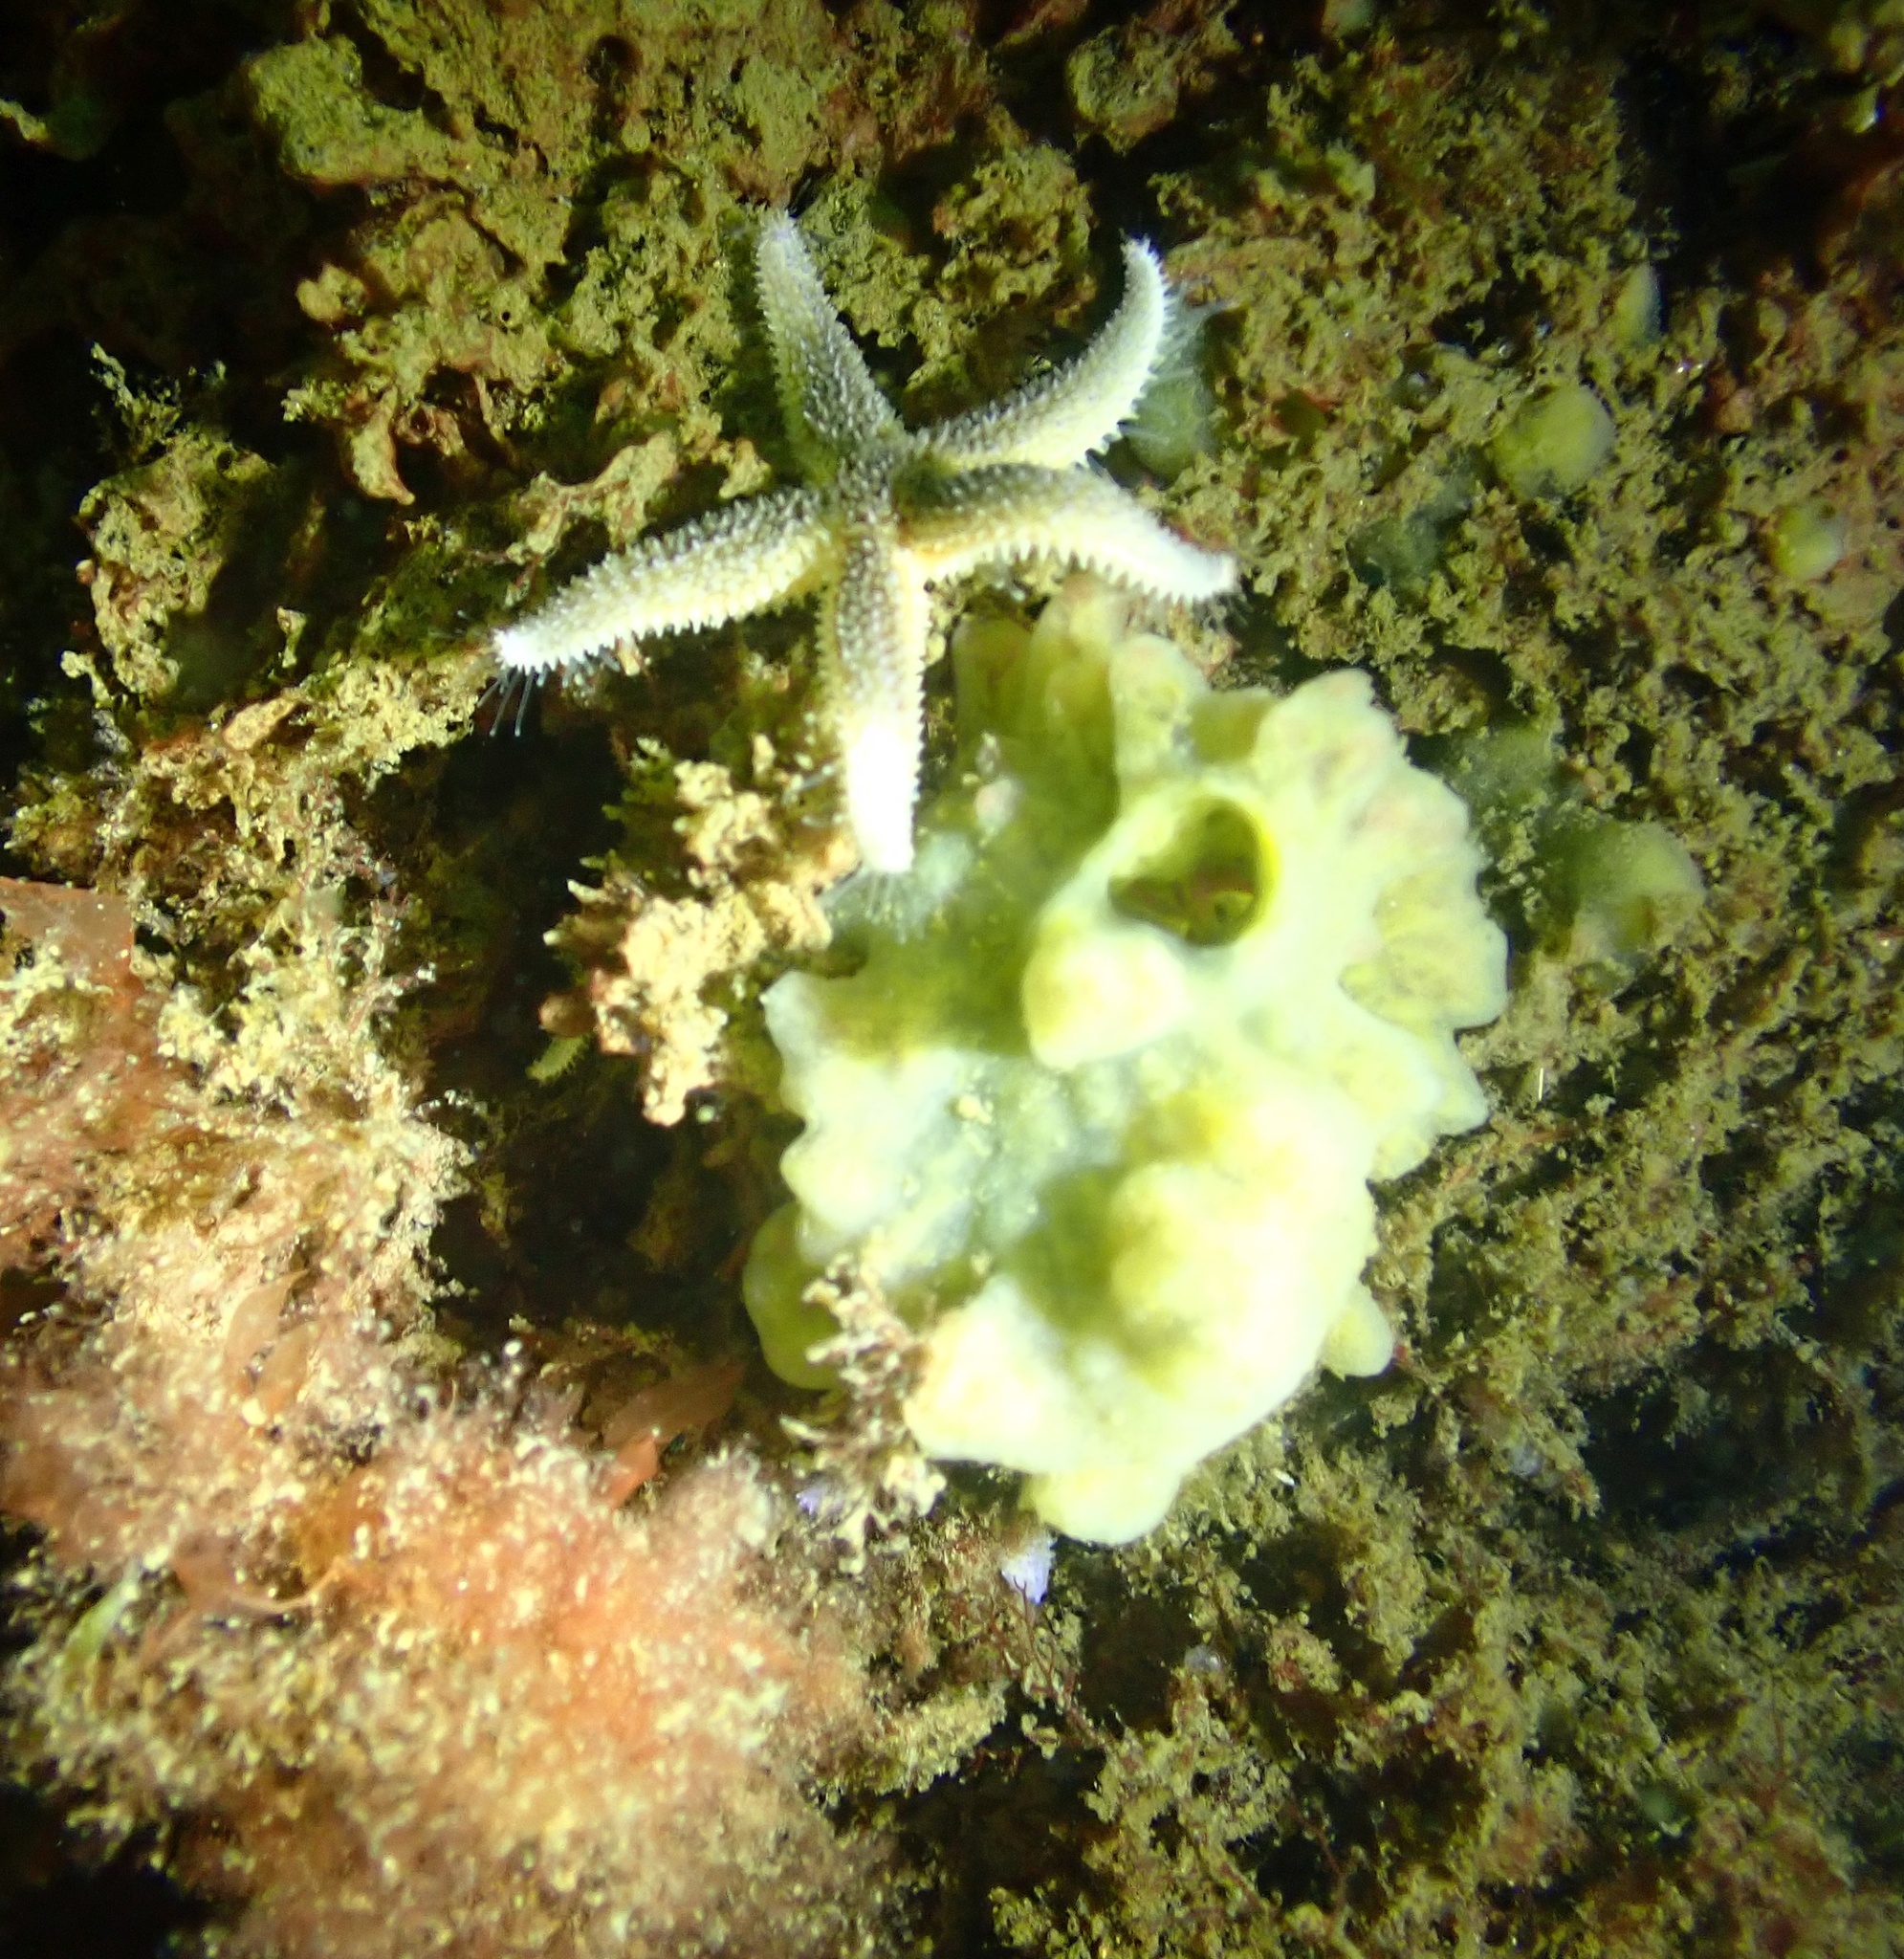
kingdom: Animalia
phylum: Echinodermata
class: Asteroidea
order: Forcipulatida
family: Asteriidae
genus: Asterias
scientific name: Asterias rubens
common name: Common starfish
